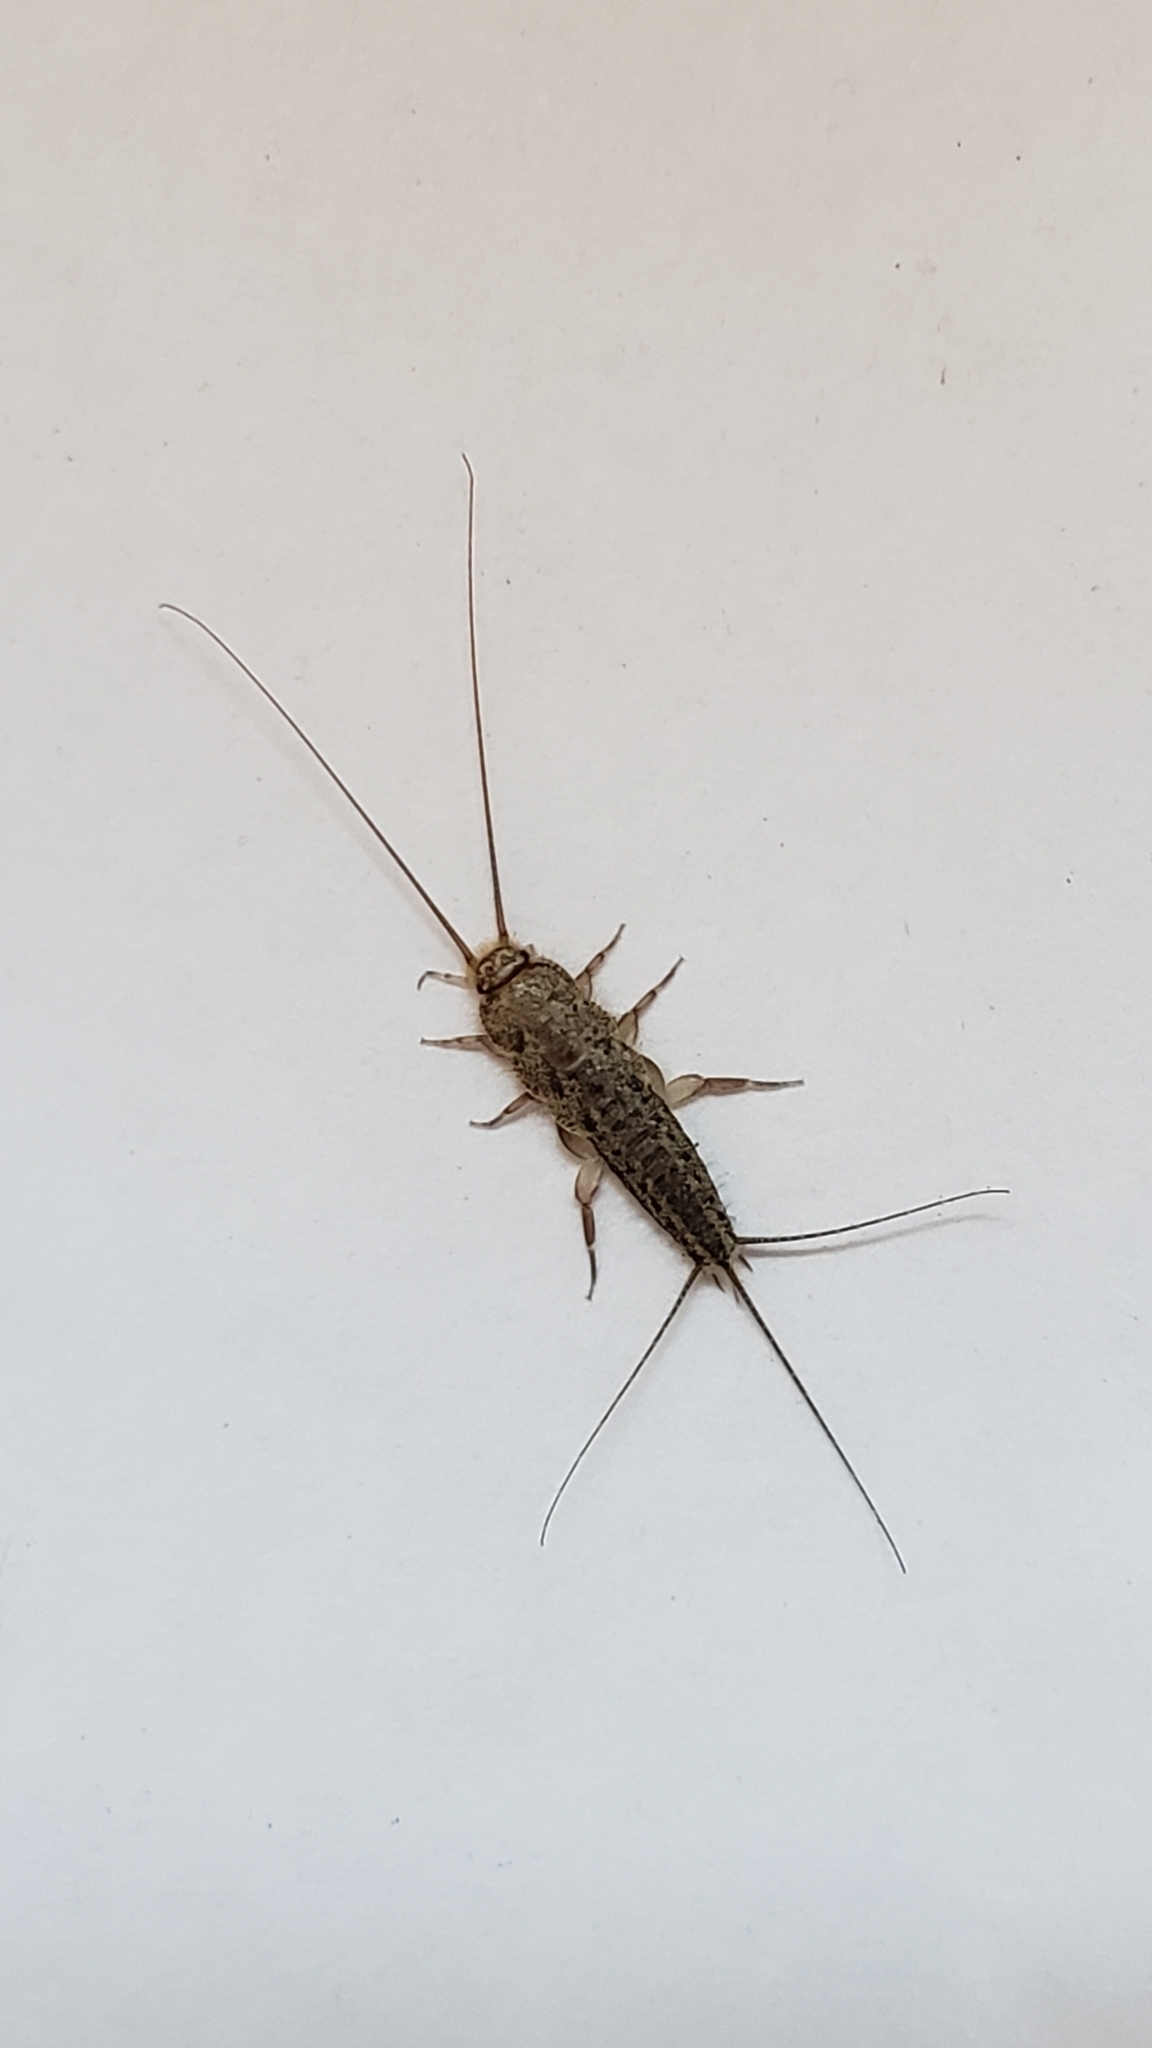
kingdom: Animalia
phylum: Arthropoda
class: Insecta
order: Zygentoma
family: Lepismatidae
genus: Ctenolepisma
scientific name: Ctenolepisma lineata
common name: Four-lined silverfish
